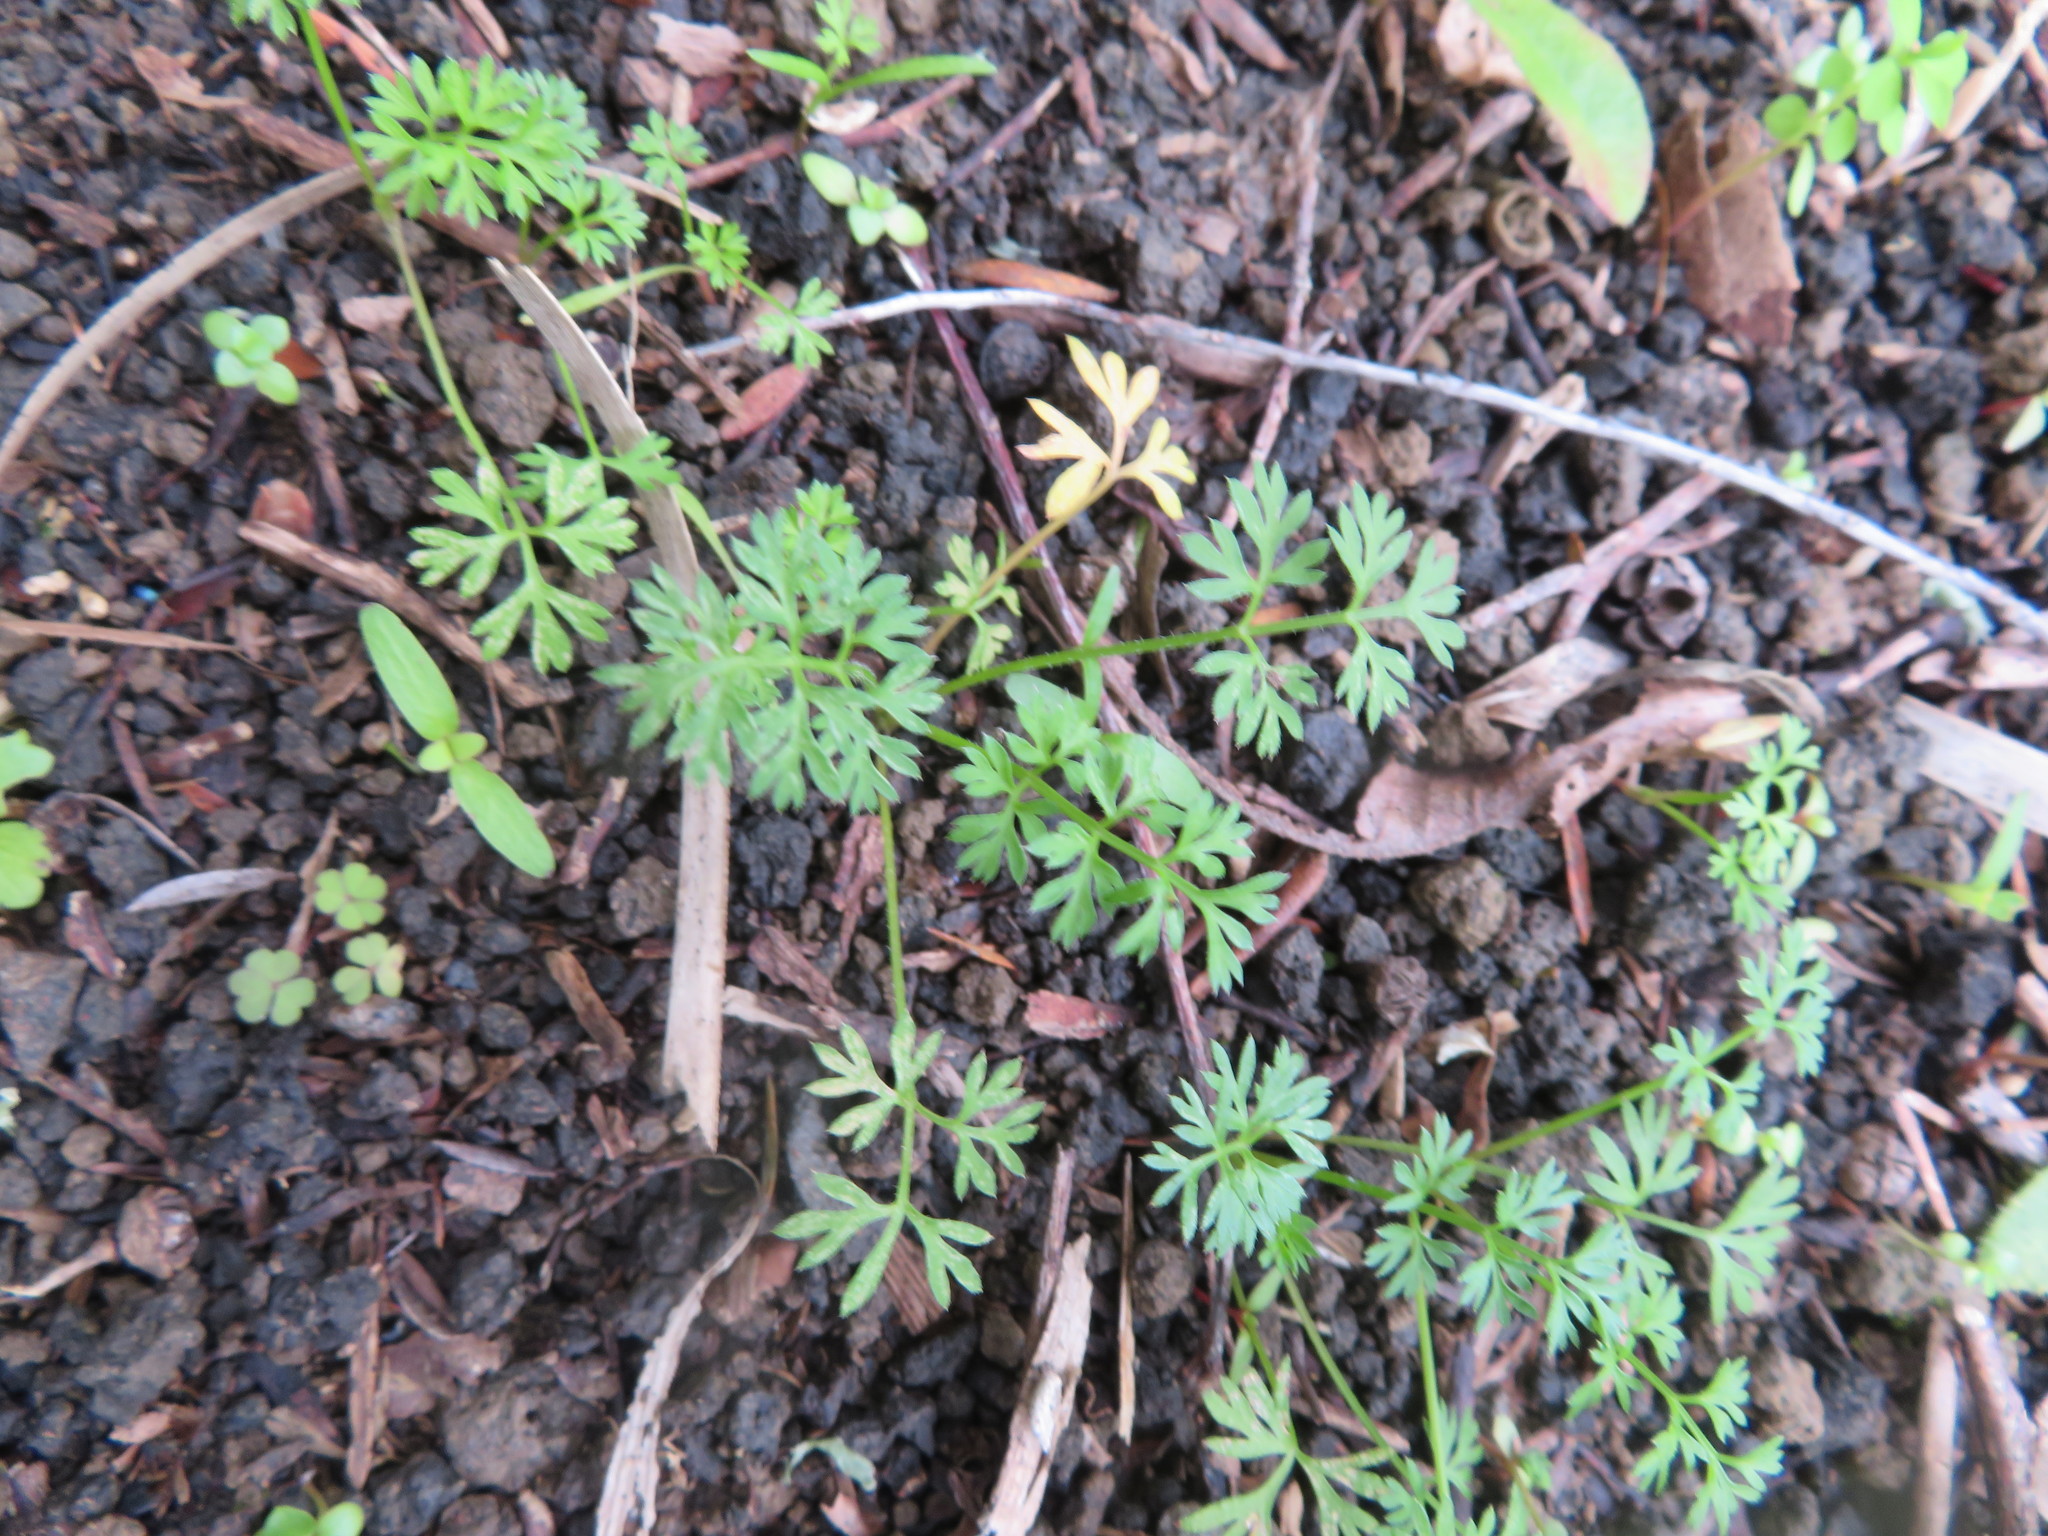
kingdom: Plantae
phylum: Tracheophyta
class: Magnoliopsida
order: Apiales
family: Apiaceae
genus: Daucus
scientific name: Daucus carota
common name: Wild carrot
